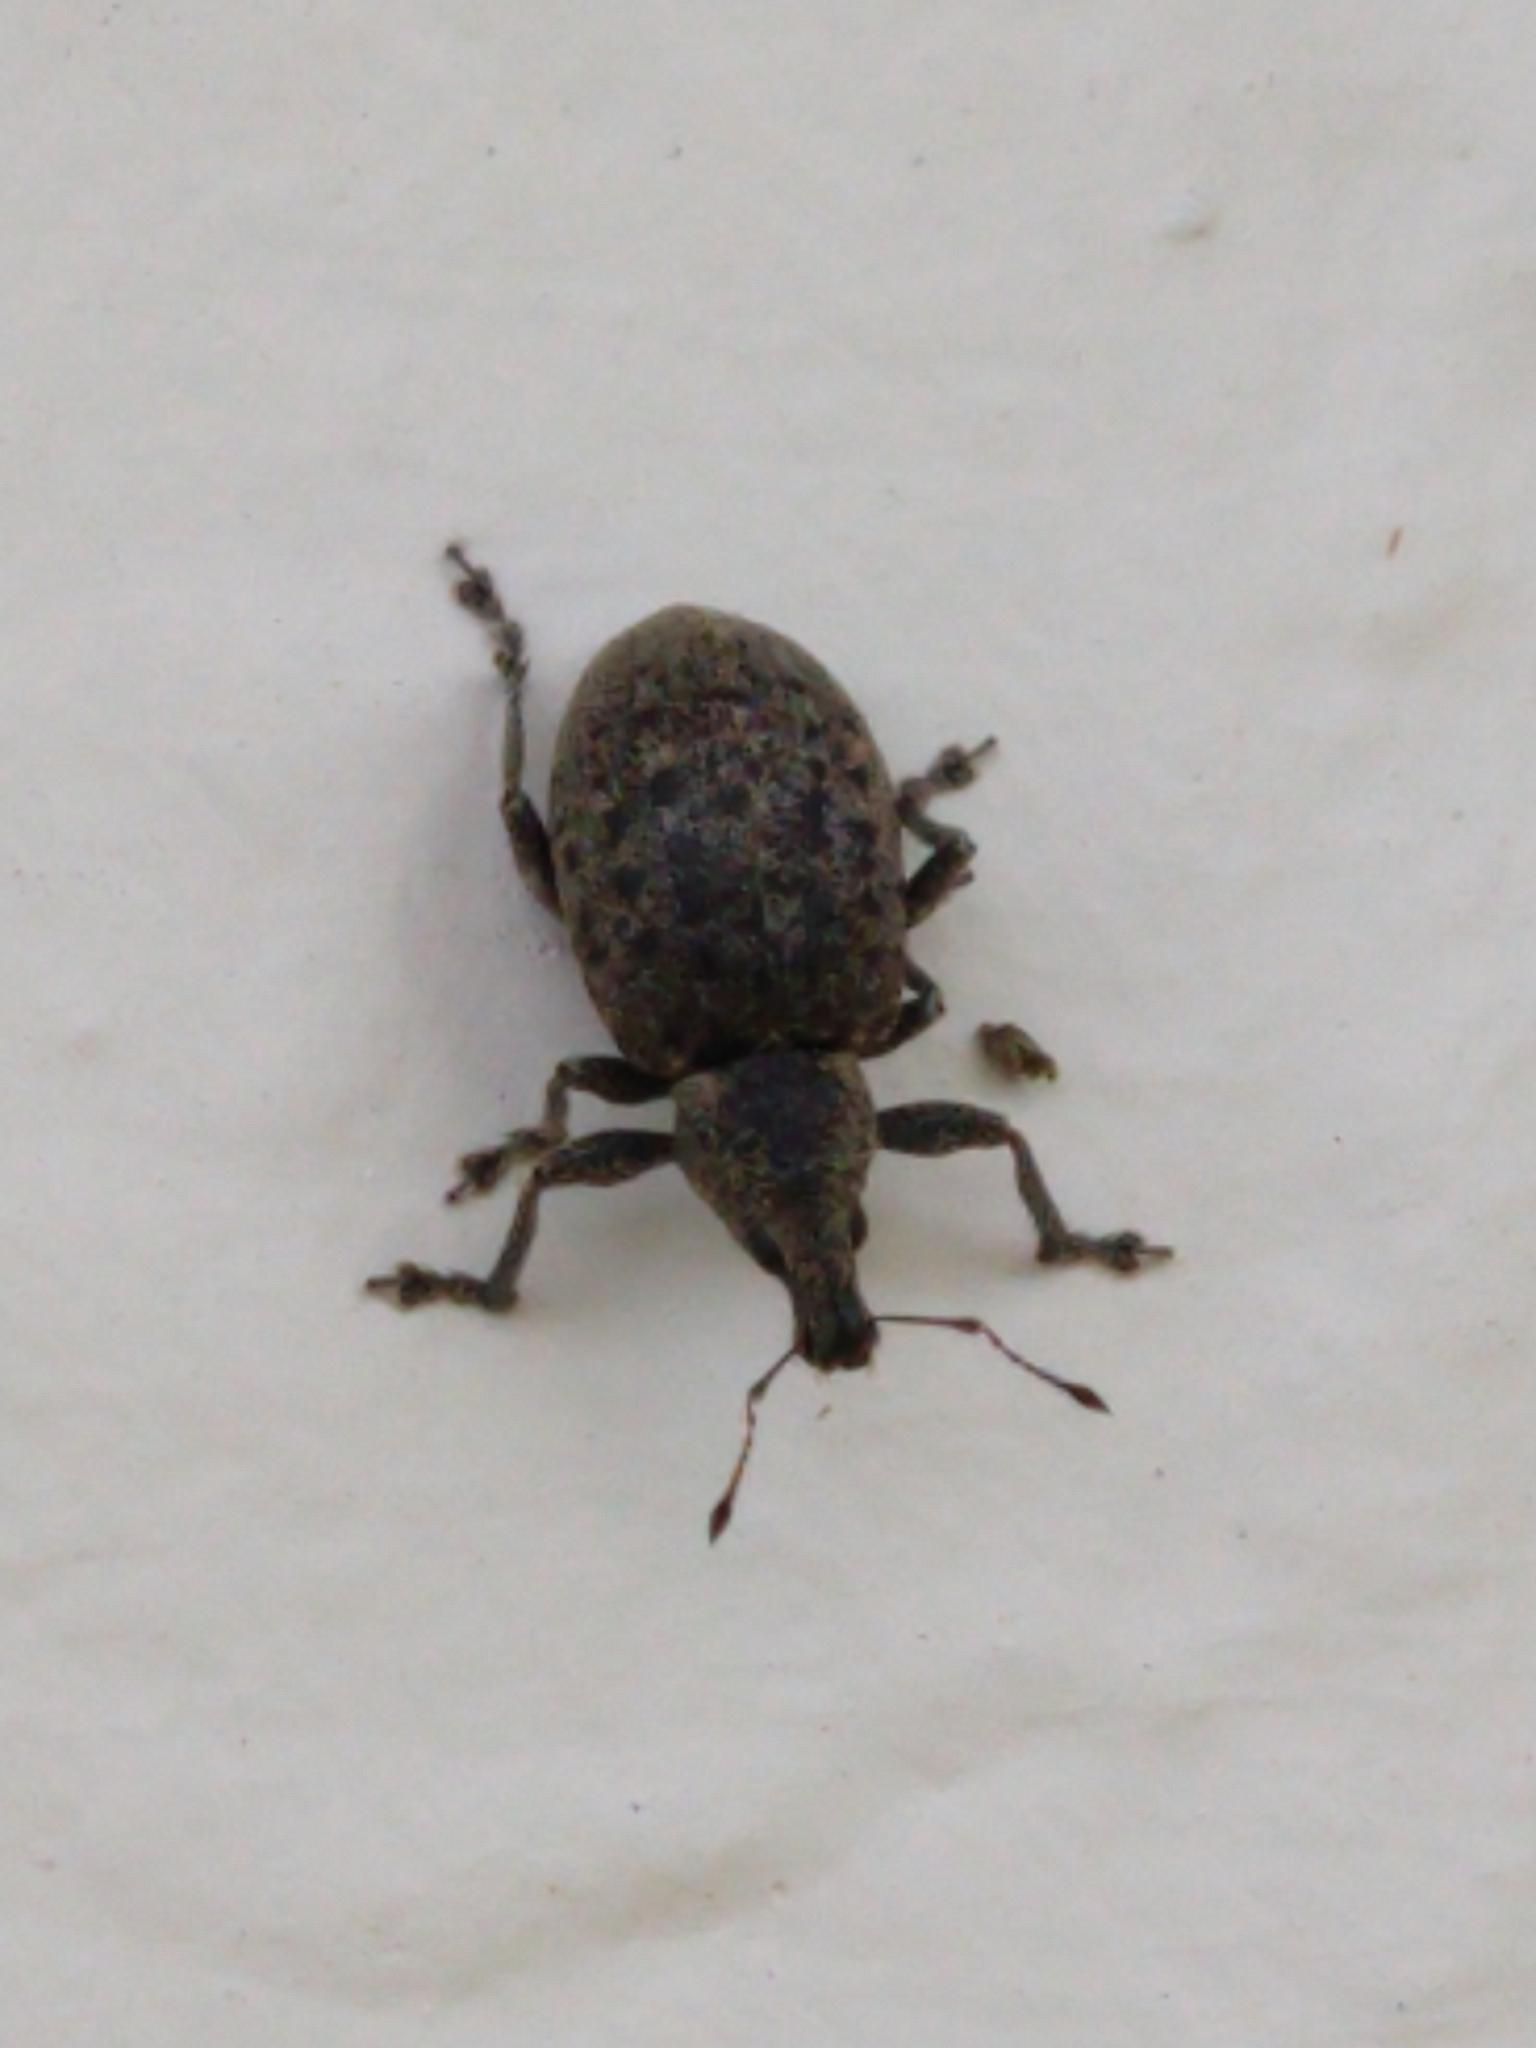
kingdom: Animalia
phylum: Arthropoda
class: Insecta
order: Coleoptera
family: Curculionidae
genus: Liophloeus
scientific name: Liophloeus tessulatus
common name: Weevil
